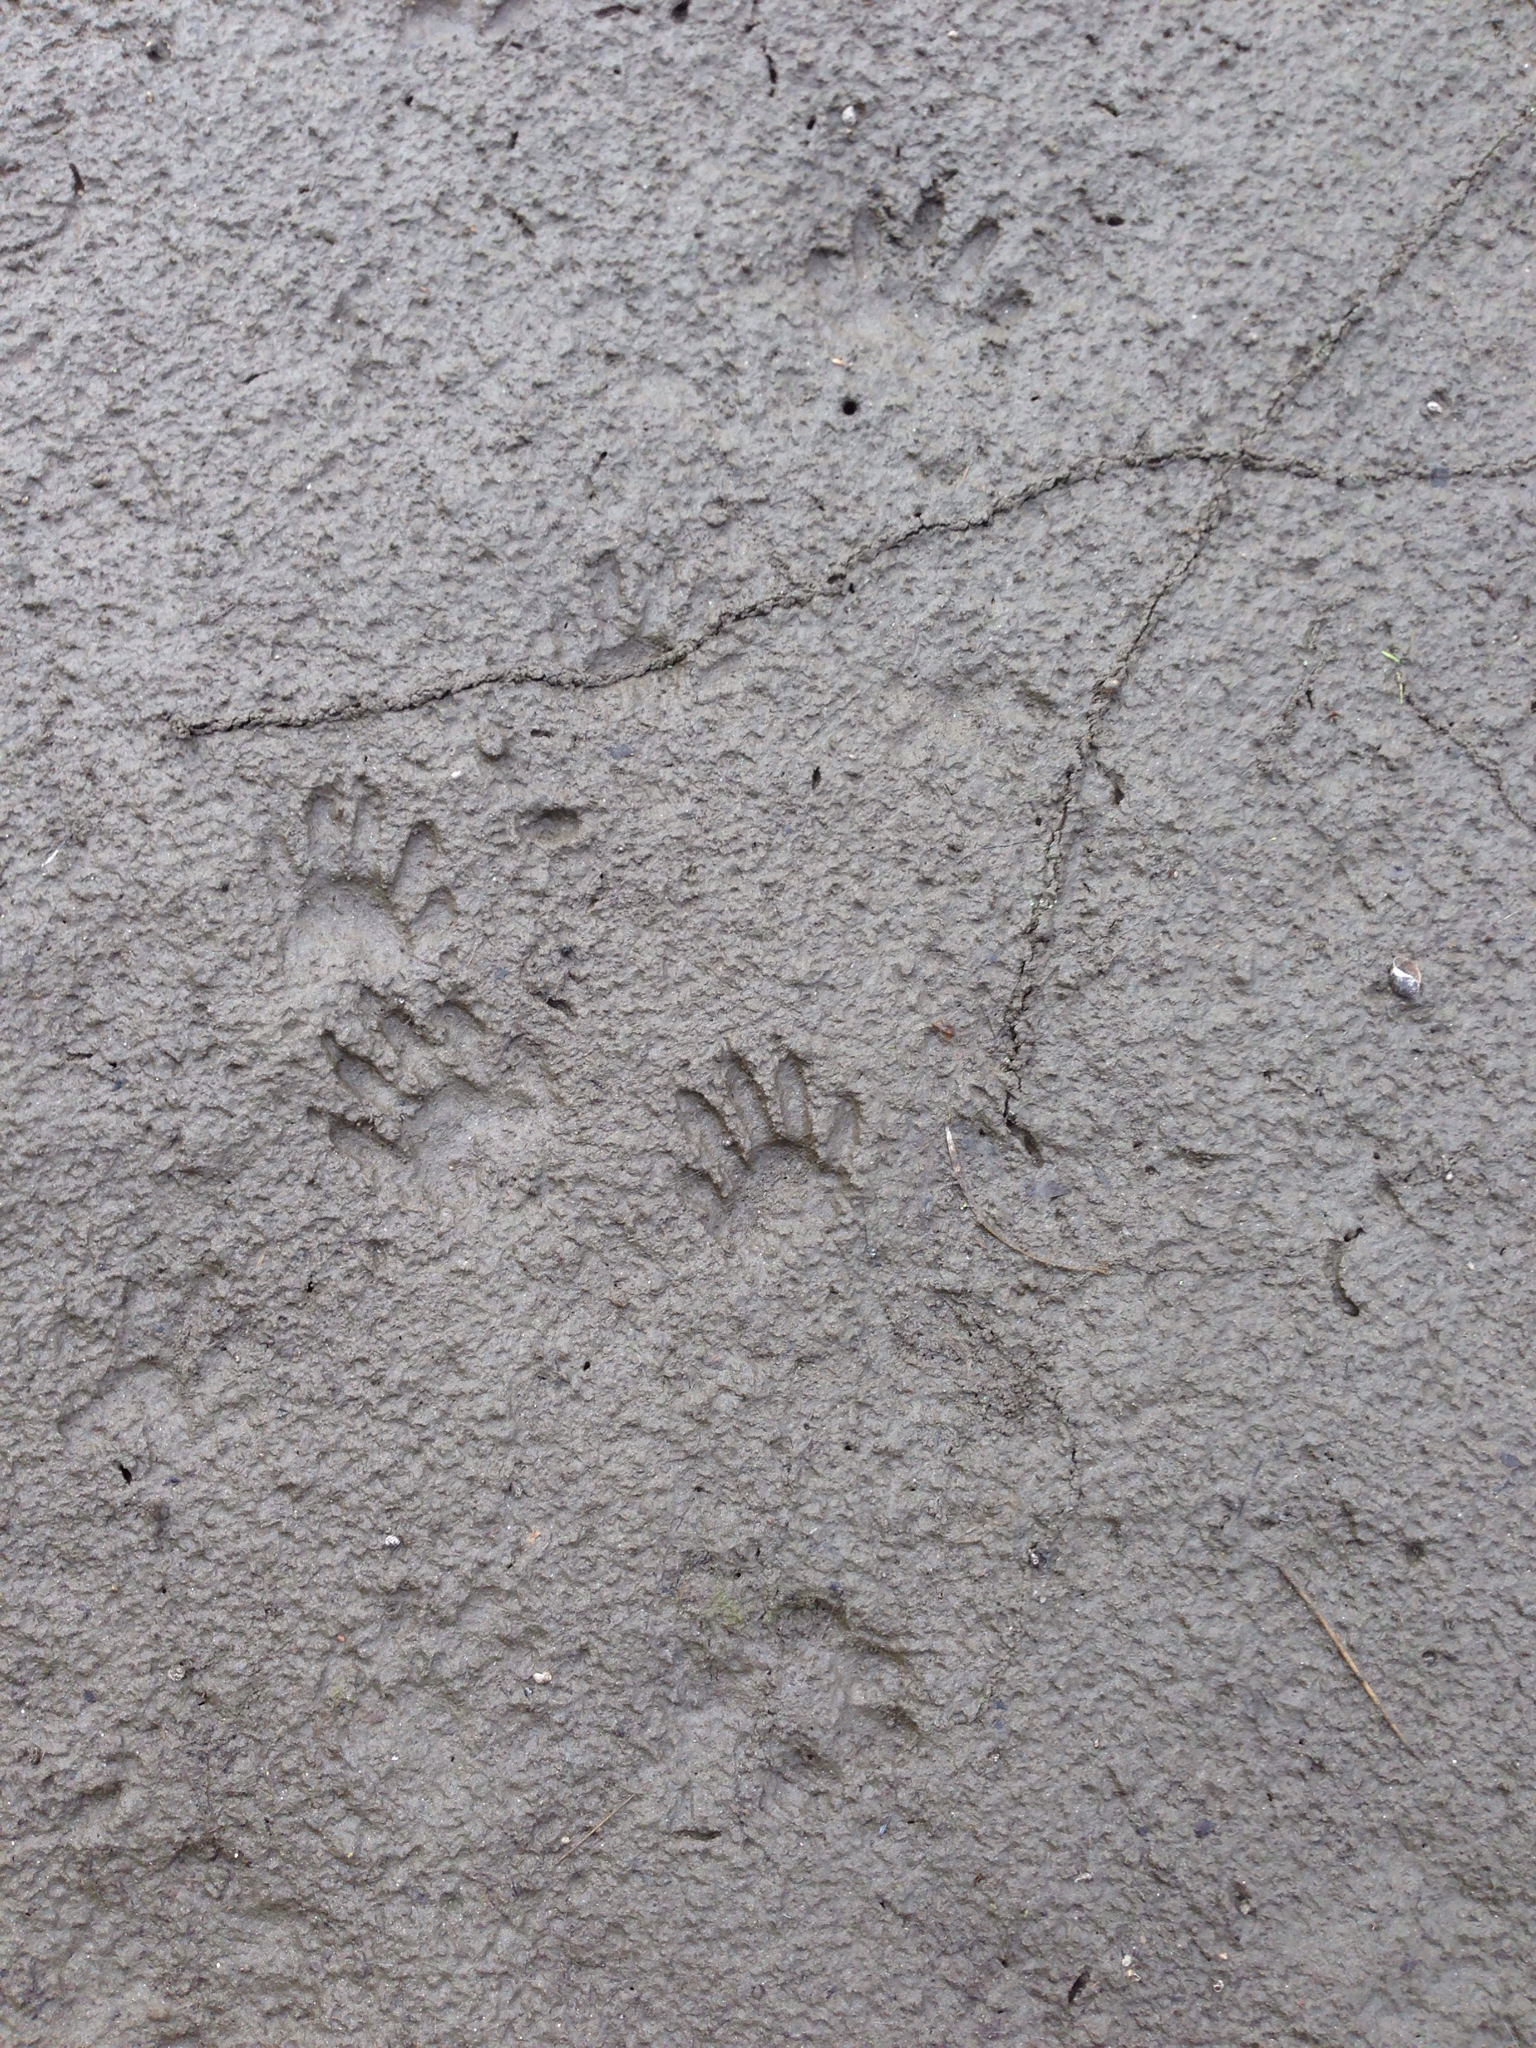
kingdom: Animalia
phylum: Chordata
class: Mammalia
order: Carnivora
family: Procyonidae
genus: Procyon
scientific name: Procyon lotor
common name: Raccoon
